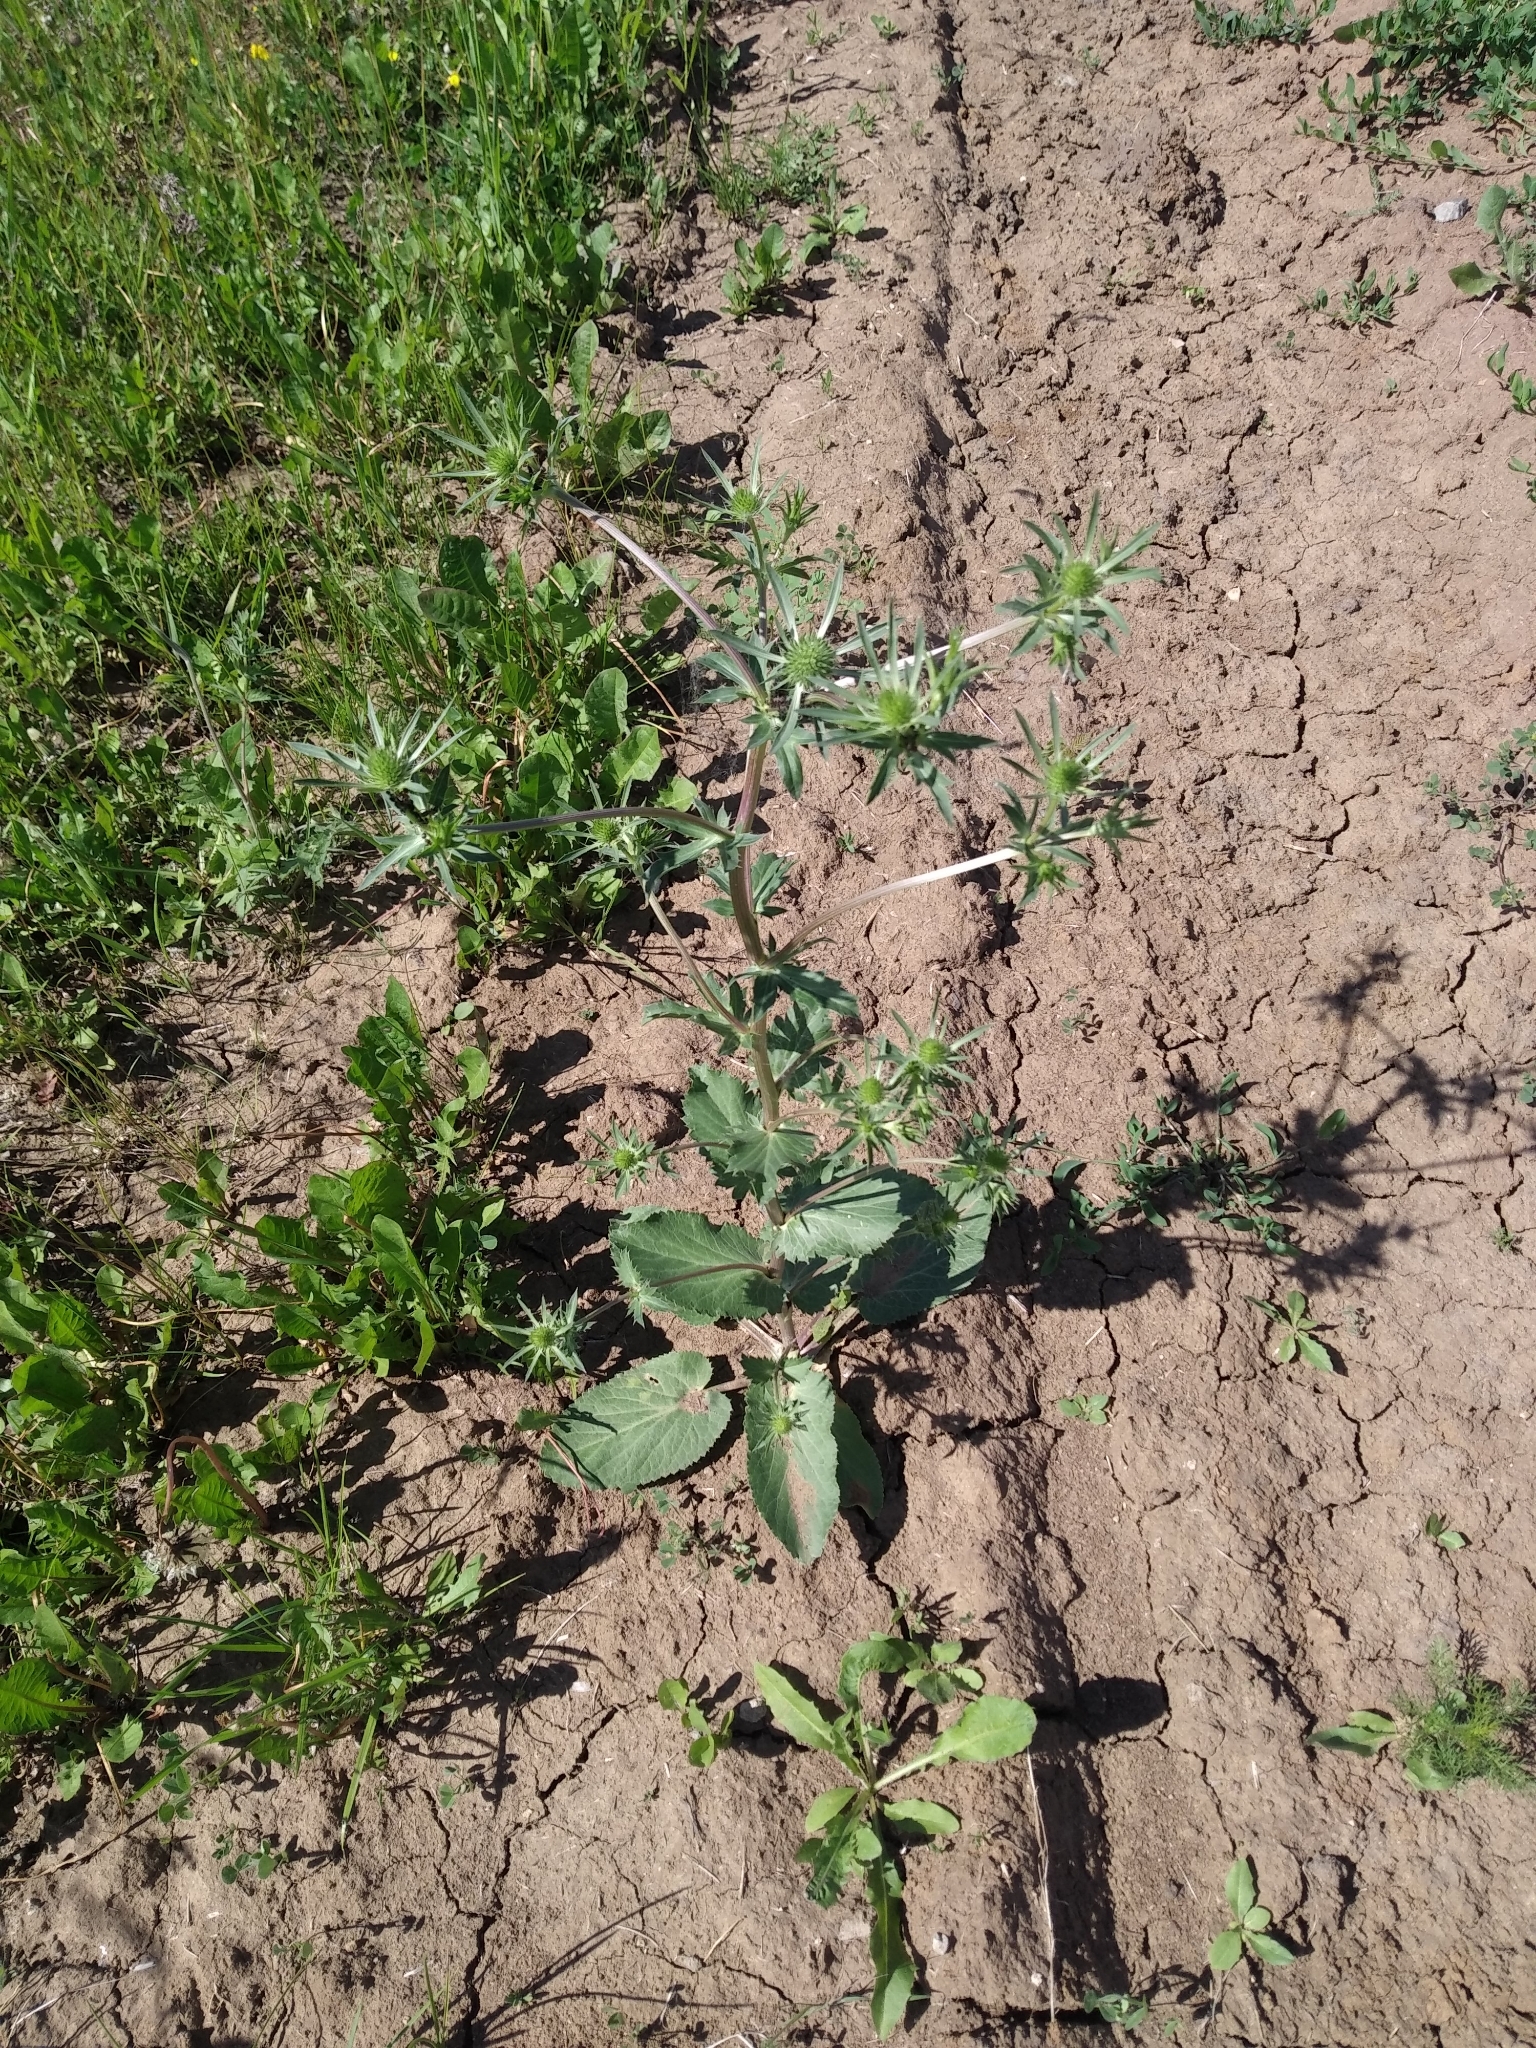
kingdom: Plantae
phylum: Tracheophyta
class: Magnoliopsida
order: Apiales
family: Apiaceae
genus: Eryngium
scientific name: Eryngium planum
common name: Blue eryngo
